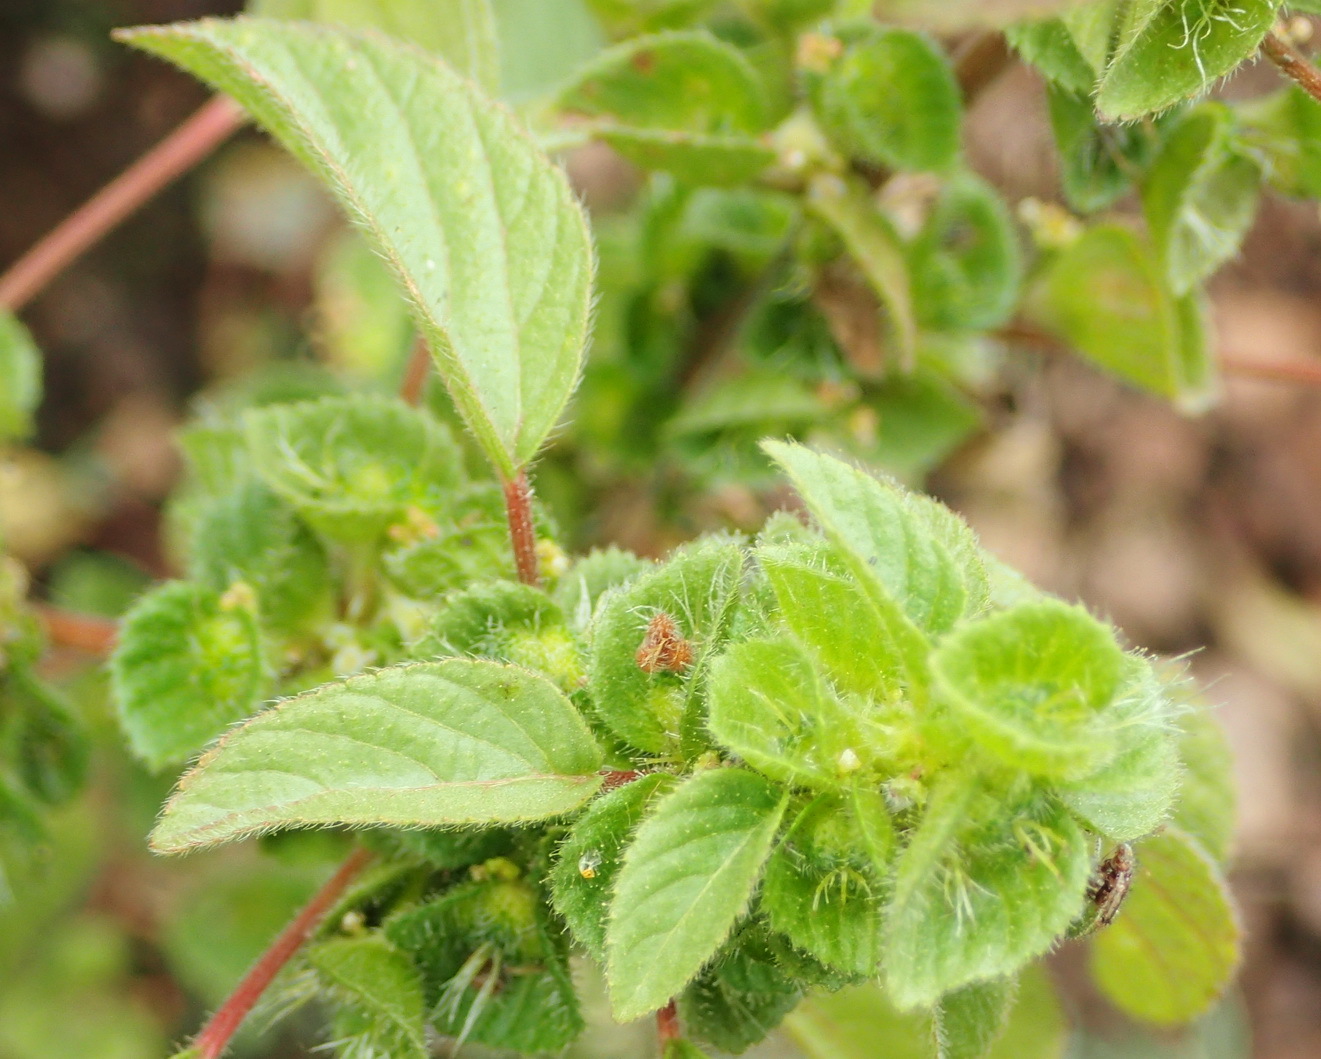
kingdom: Plantae
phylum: Tracheophyta
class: Magnoliopsida
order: Malpighiales
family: Euphorbiaceae
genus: Acalypha
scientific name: Acalypha petiolaris
